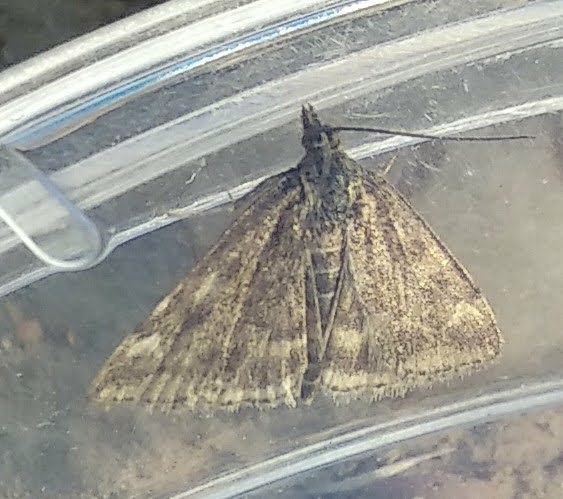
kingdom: Animalia
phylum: Arthropoda
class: Insecta
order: Lepidoptera
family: Crambidae
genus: Pyrausta
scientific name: Pyrausta despicata
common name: Straw-barred pearl
